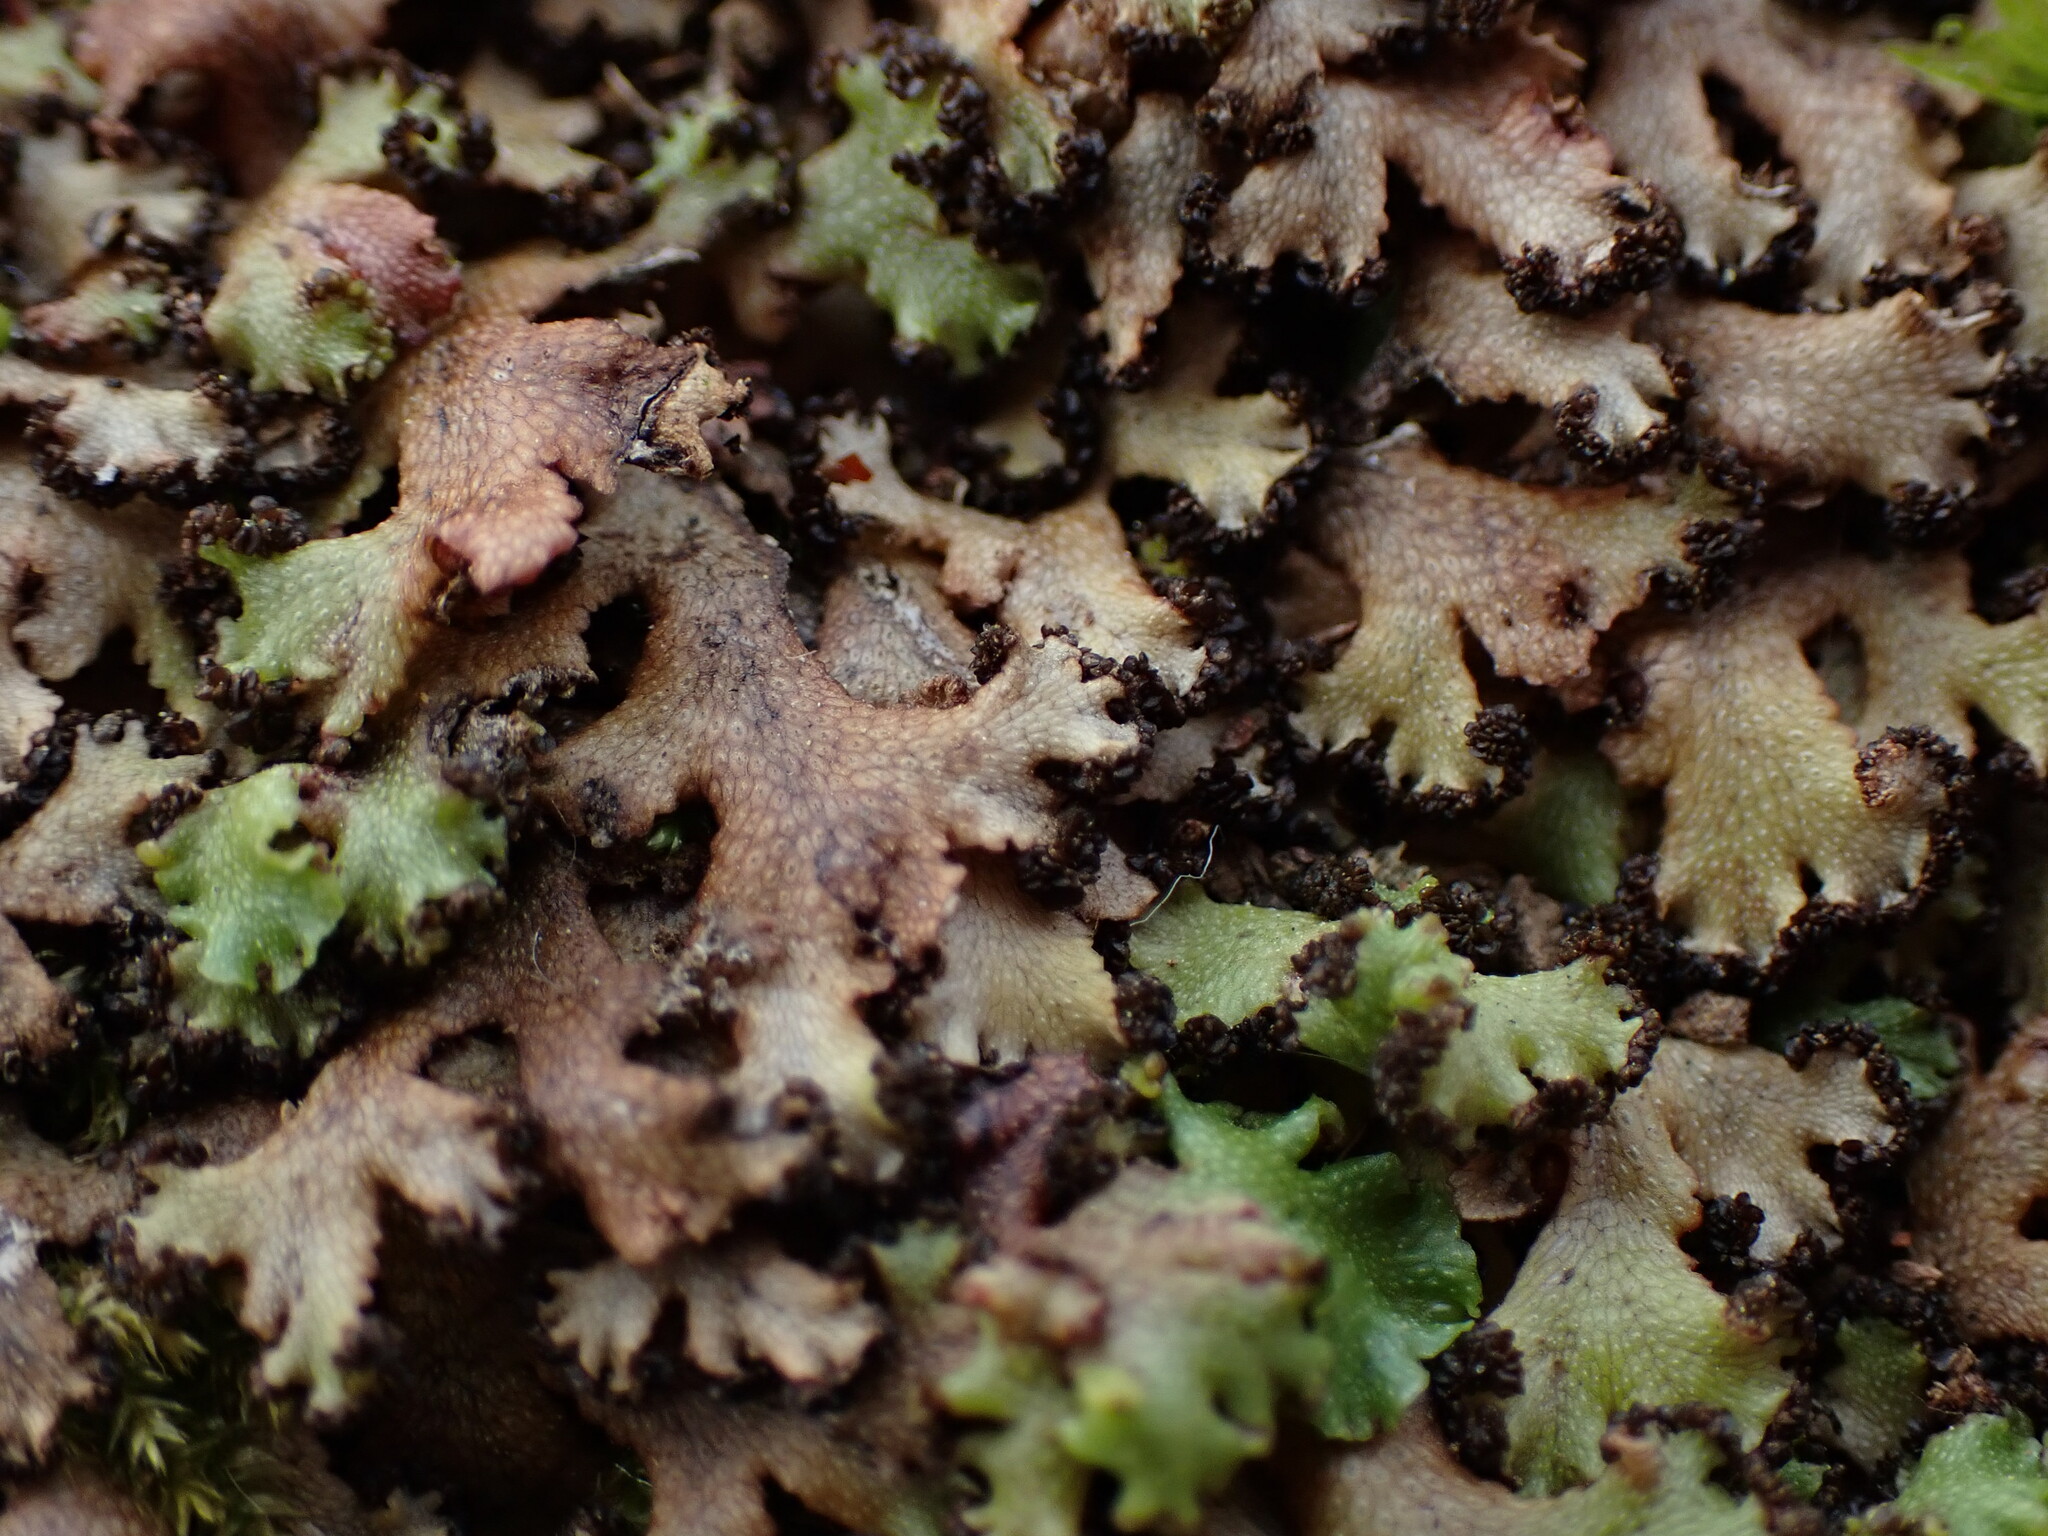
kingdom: Plantae
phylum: Marchantiophyta
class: Marchantiopsida
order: Marchantiales
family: Conocephalaceae
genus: Sandea
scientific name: Sandea japonica
